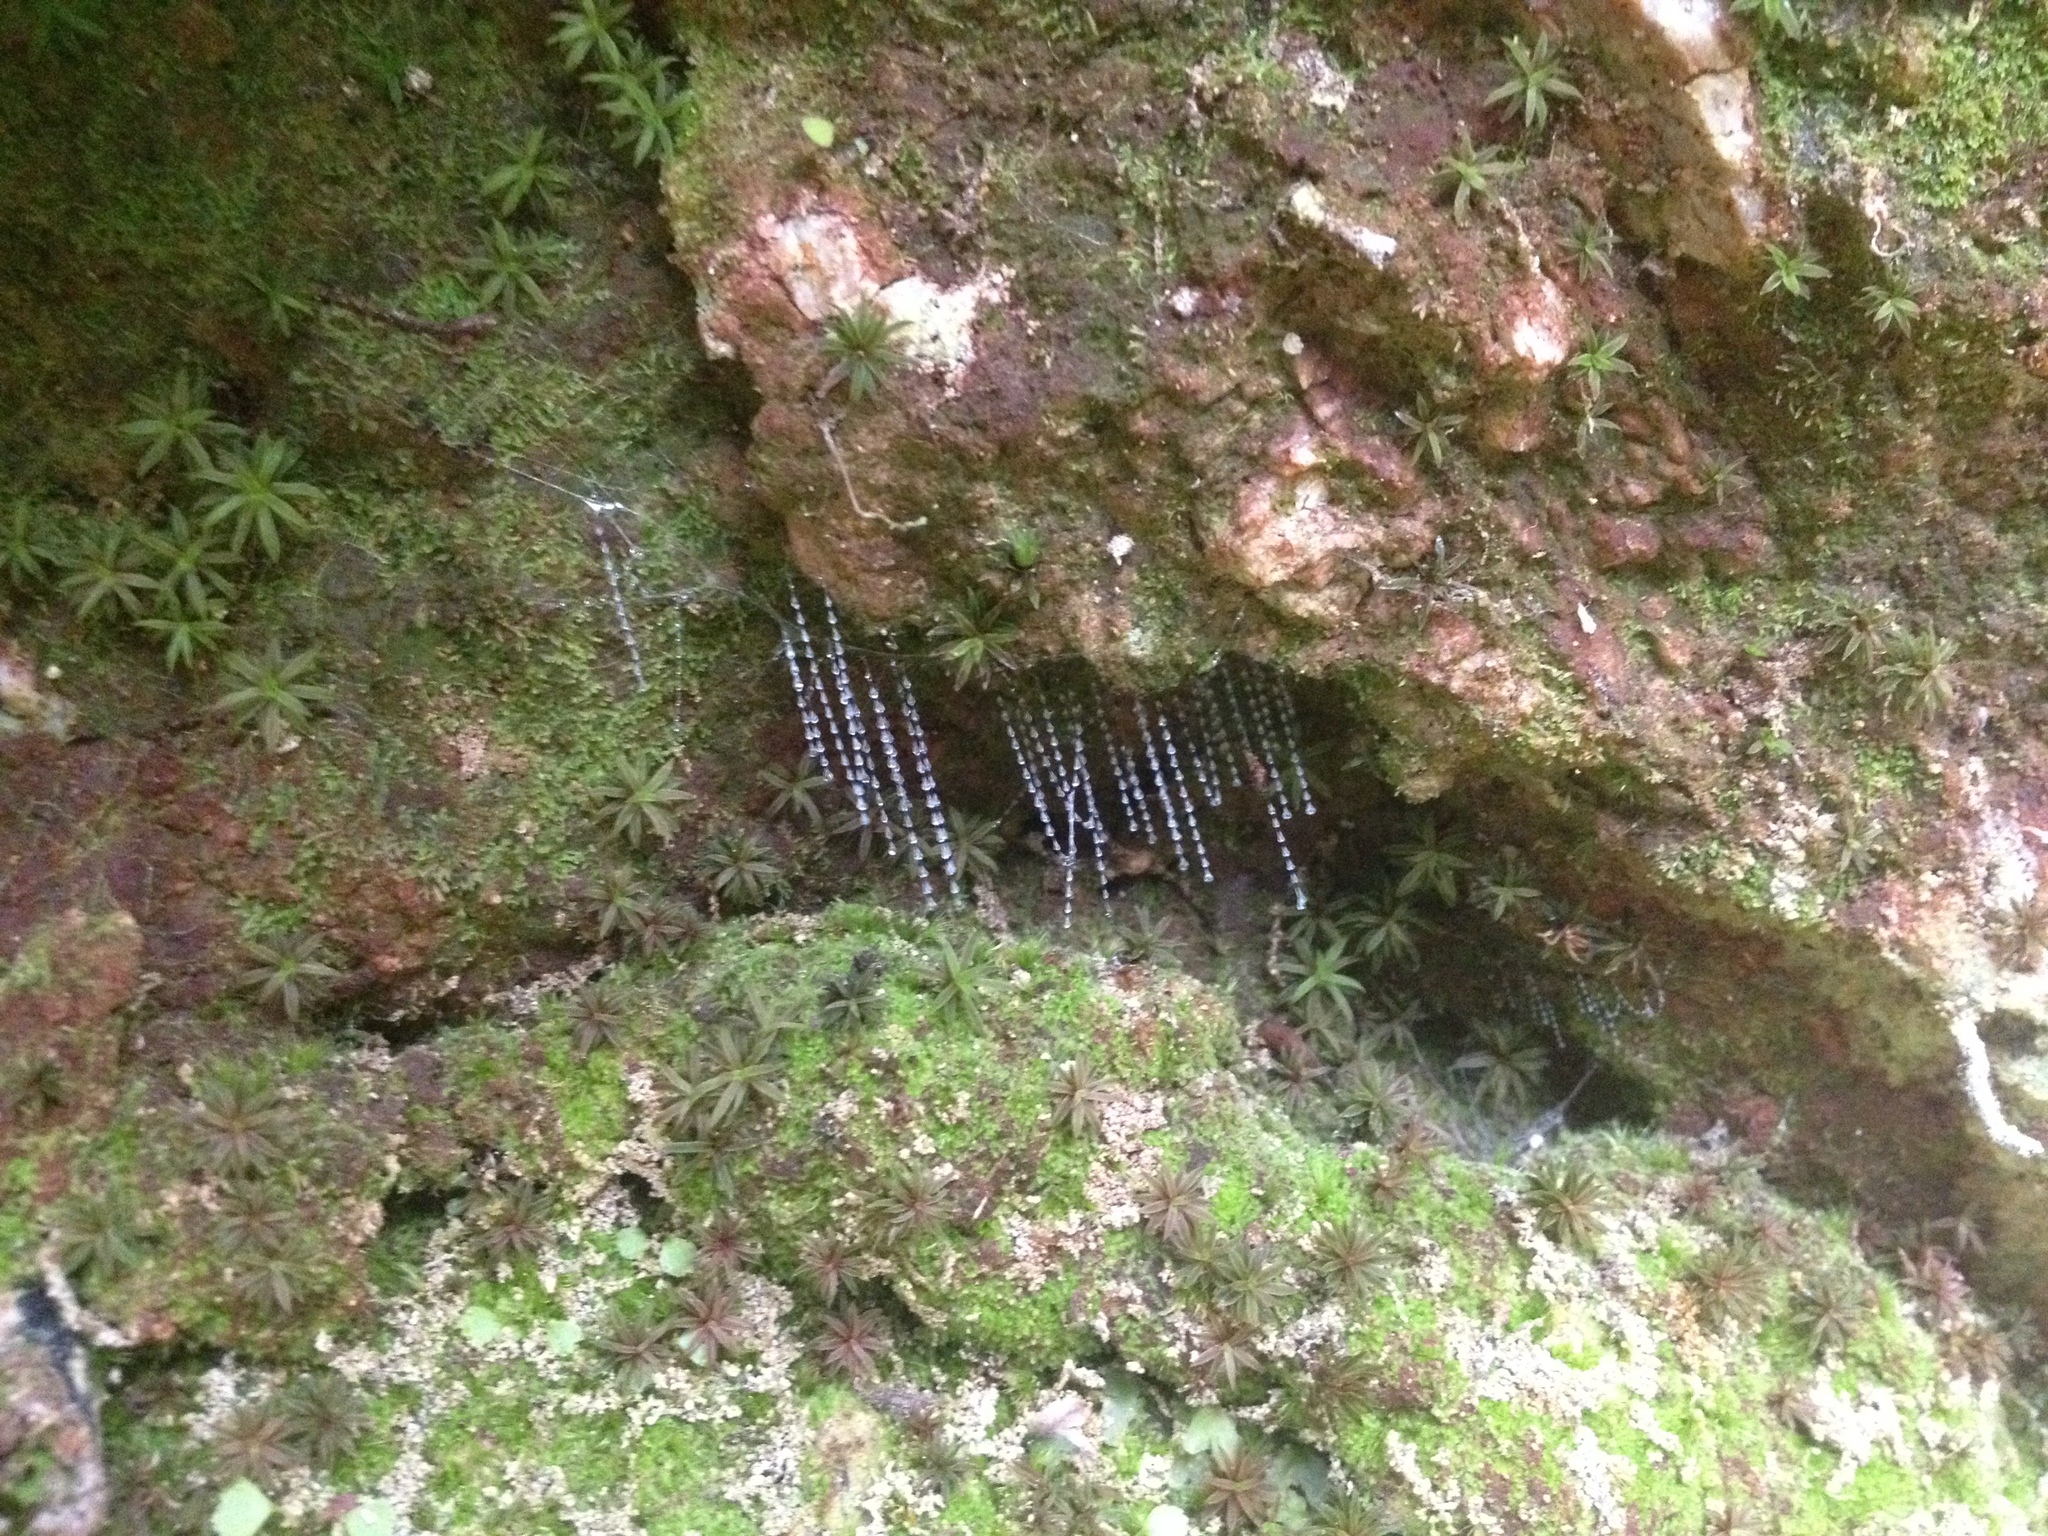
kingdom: Animalia
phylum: Arthropoda
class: Insecta
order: Diptera
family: Keroplatidae
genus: Arachnocampa
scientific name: Arachnocampa luminosa
